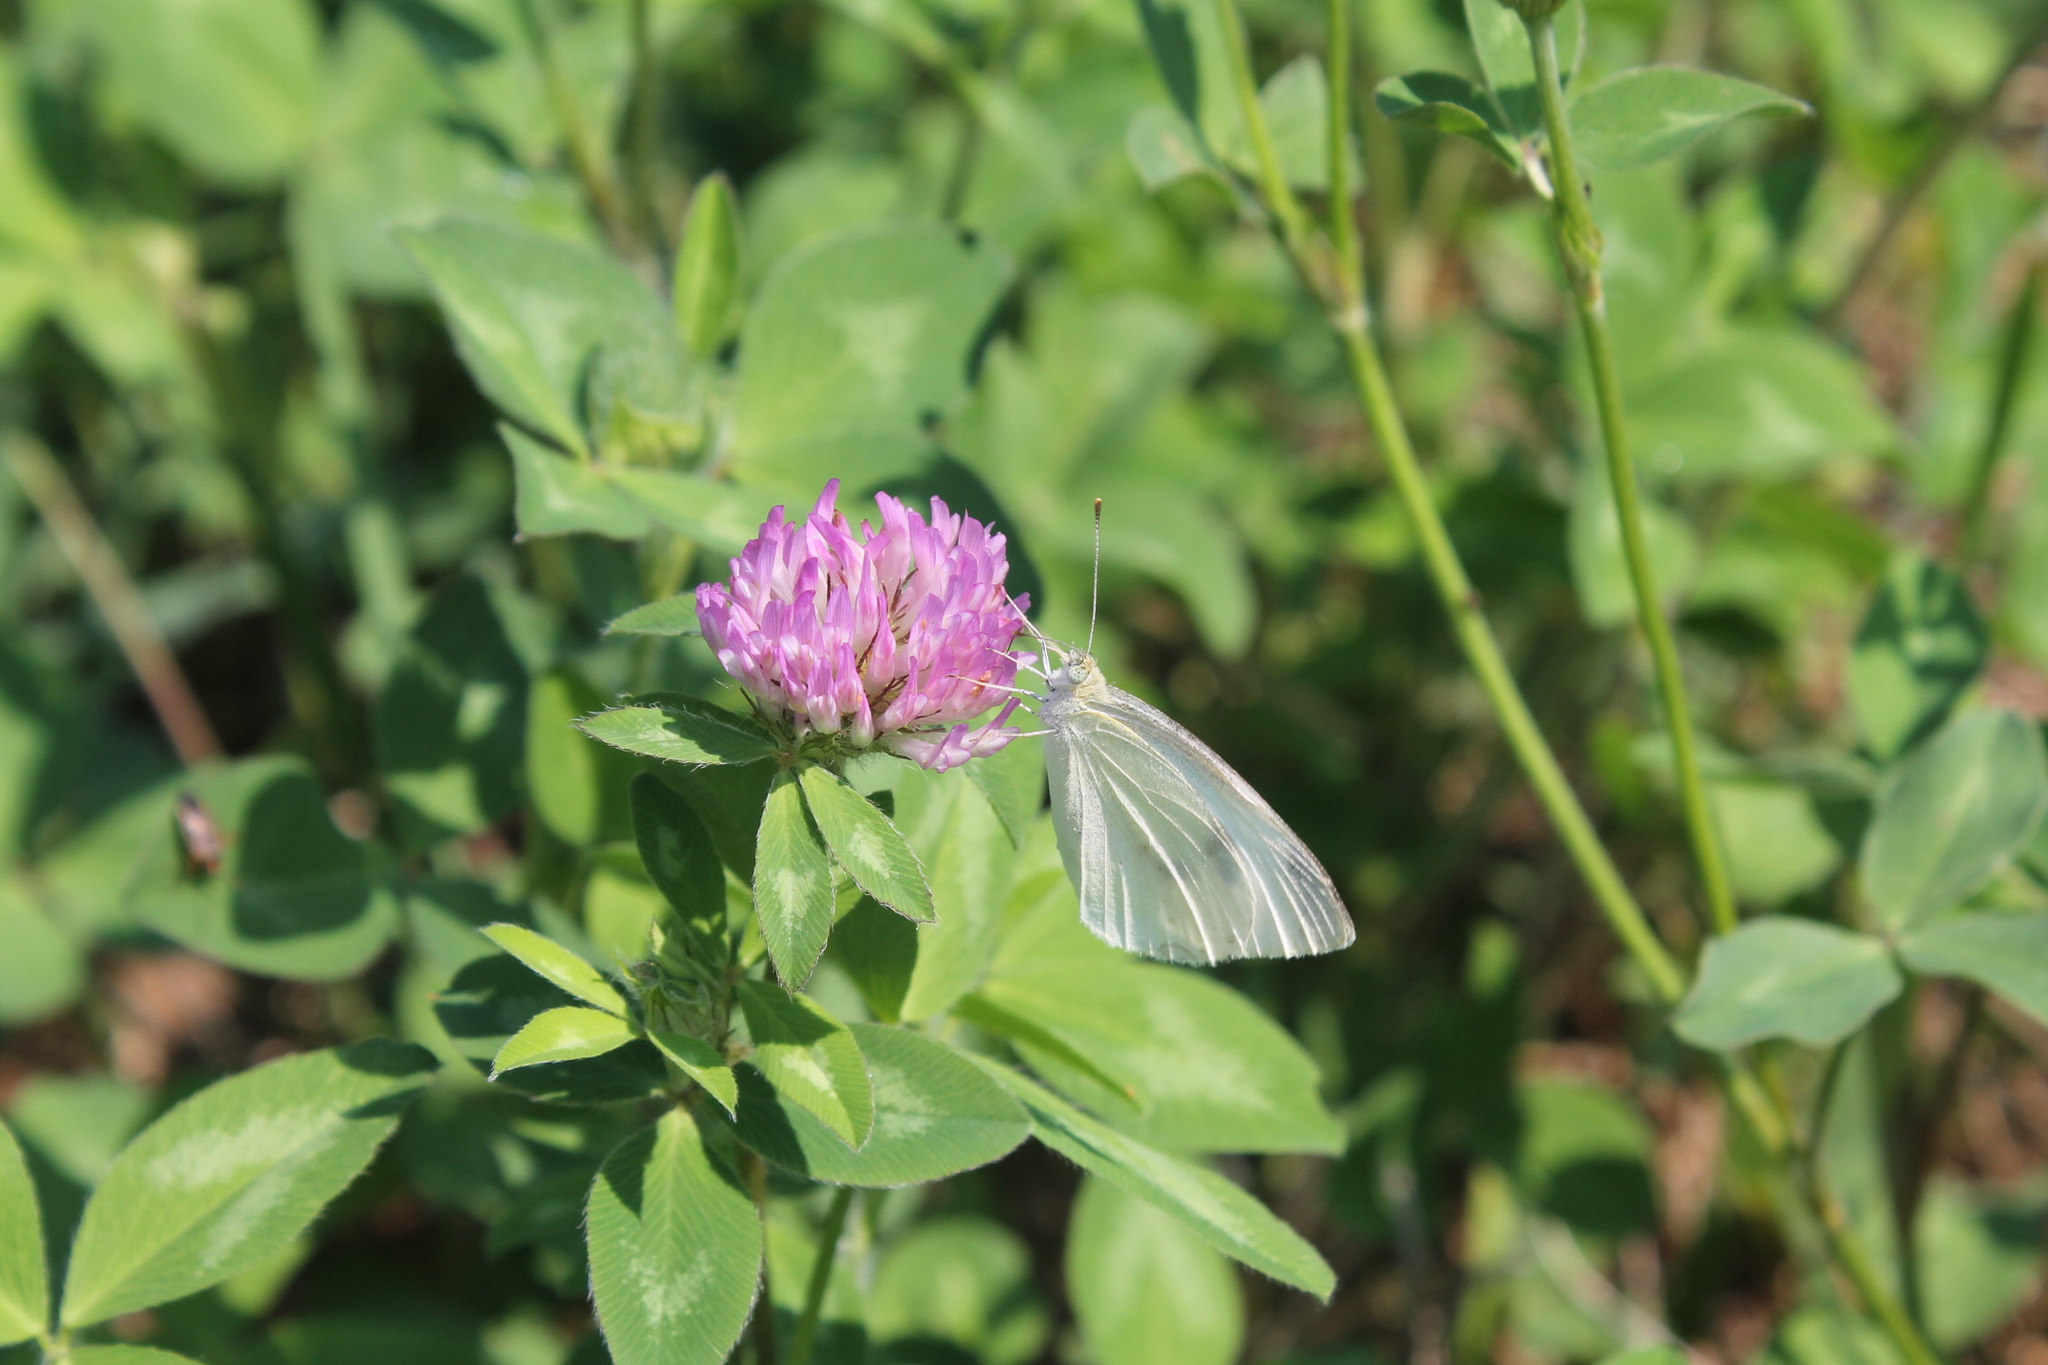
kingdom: Animalia
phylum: Arthropoda
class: Insecta
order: Lepidoptera
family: Pieridae
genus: Pieris
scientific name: Pieris rapae
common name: Small white
